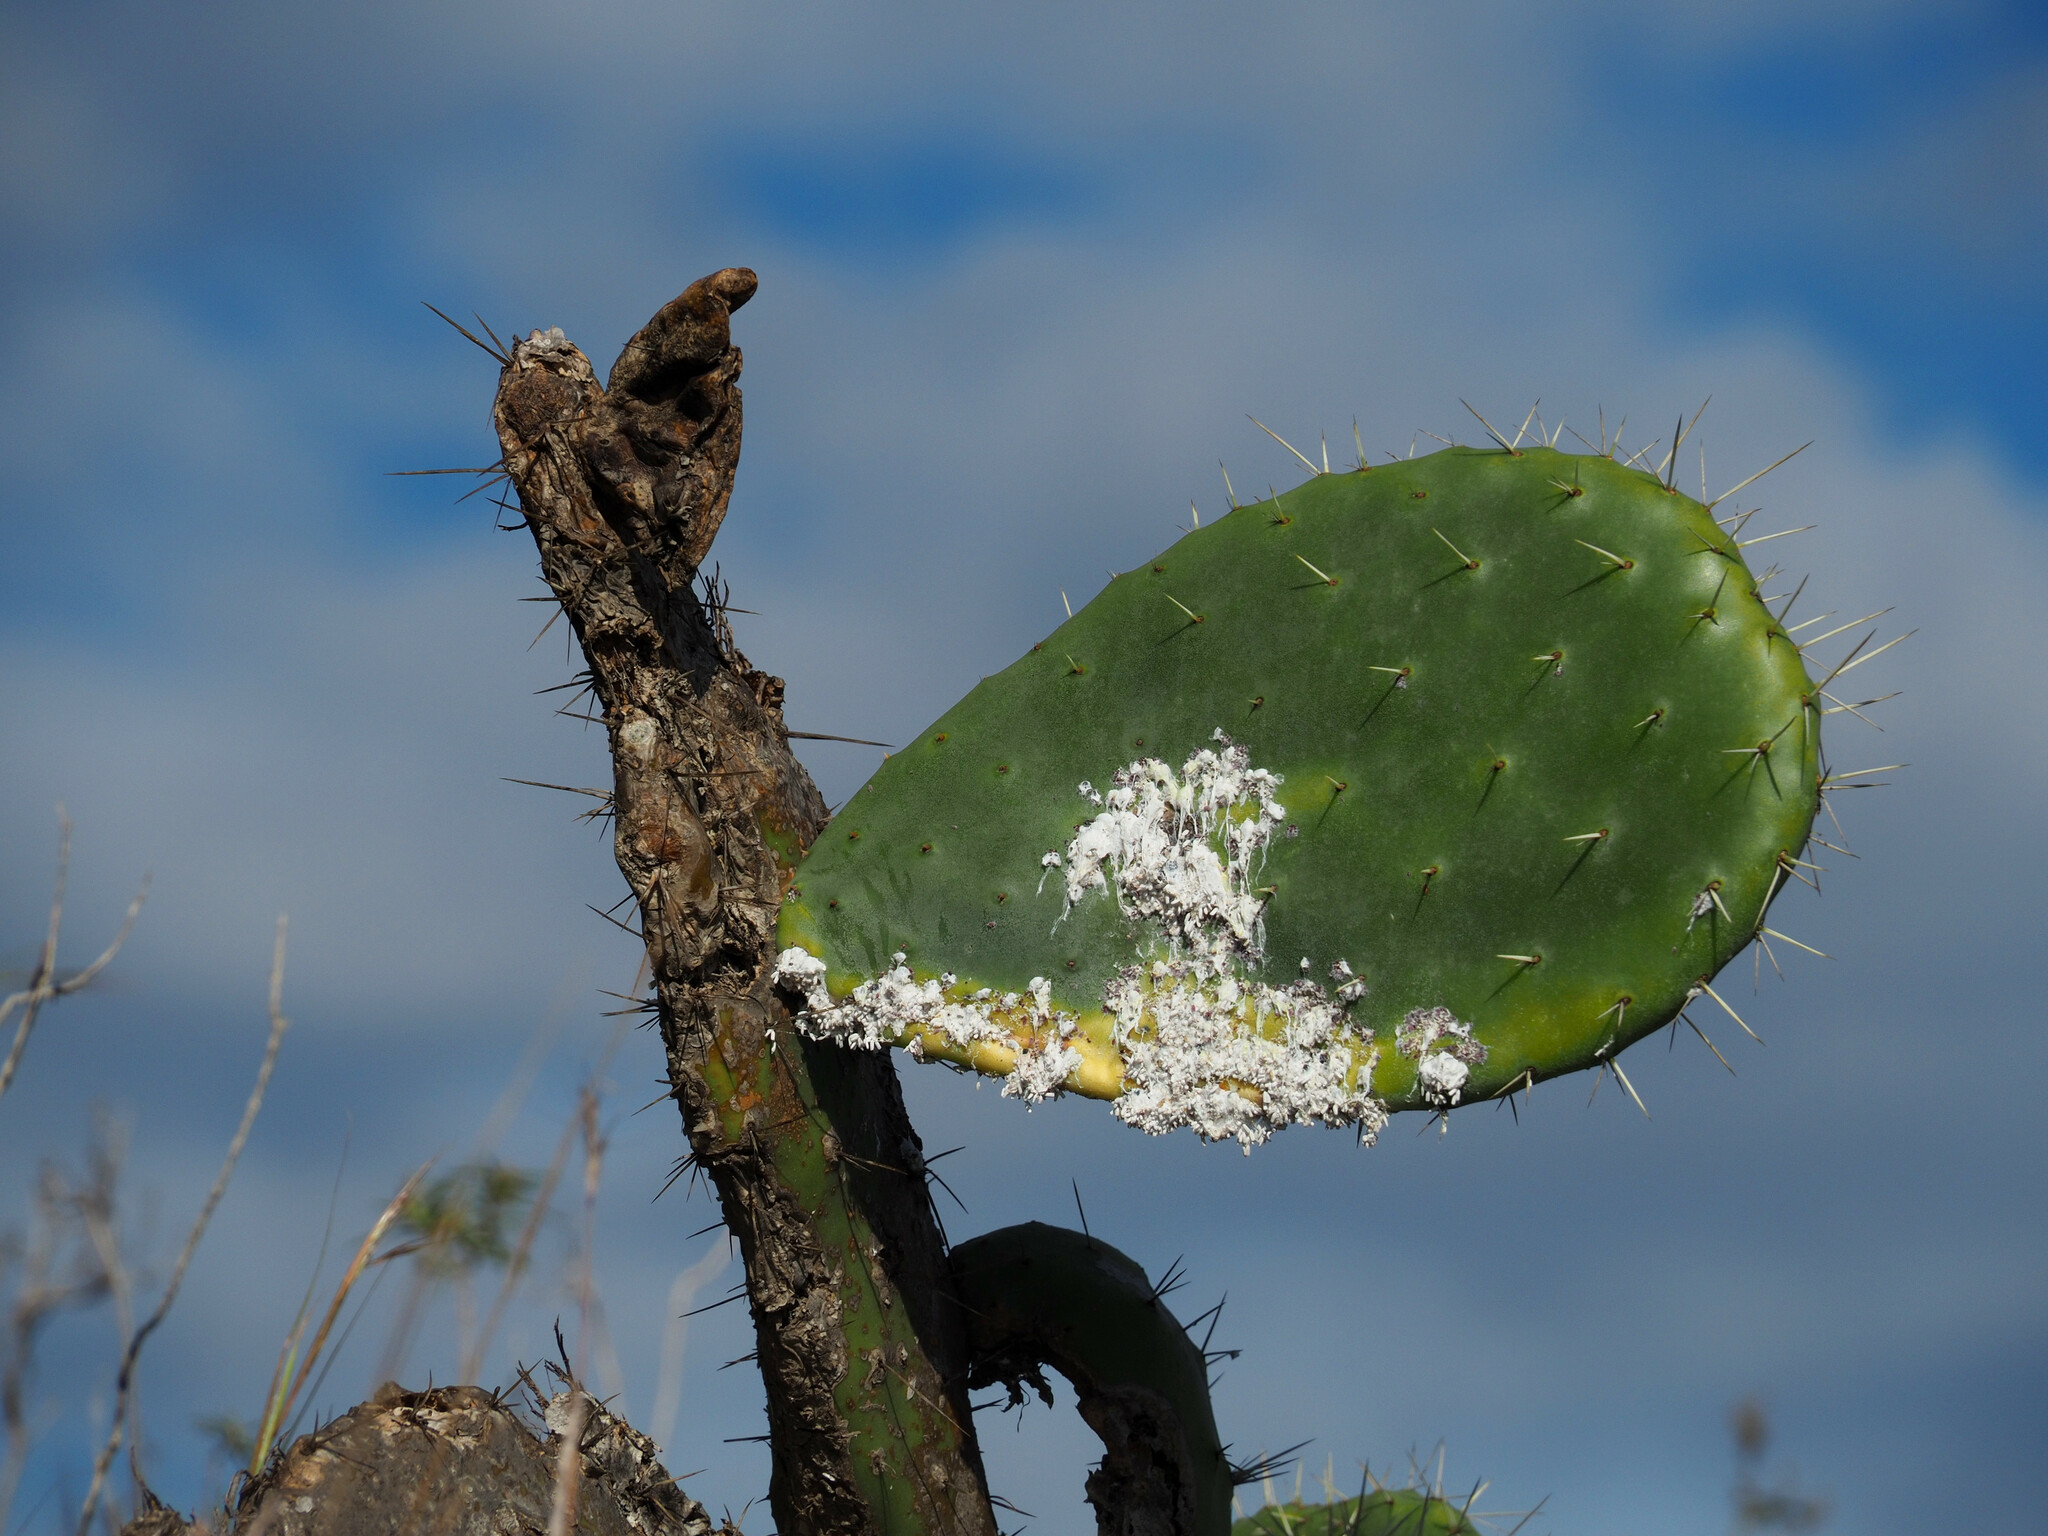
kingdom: Animalia
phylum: Arthropoda
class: Insecta
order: Hemiptera
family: Dactylopiidae
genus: Dactylopius
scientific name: Dactylopius opuntiae
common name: Opuntia cochineal scale
